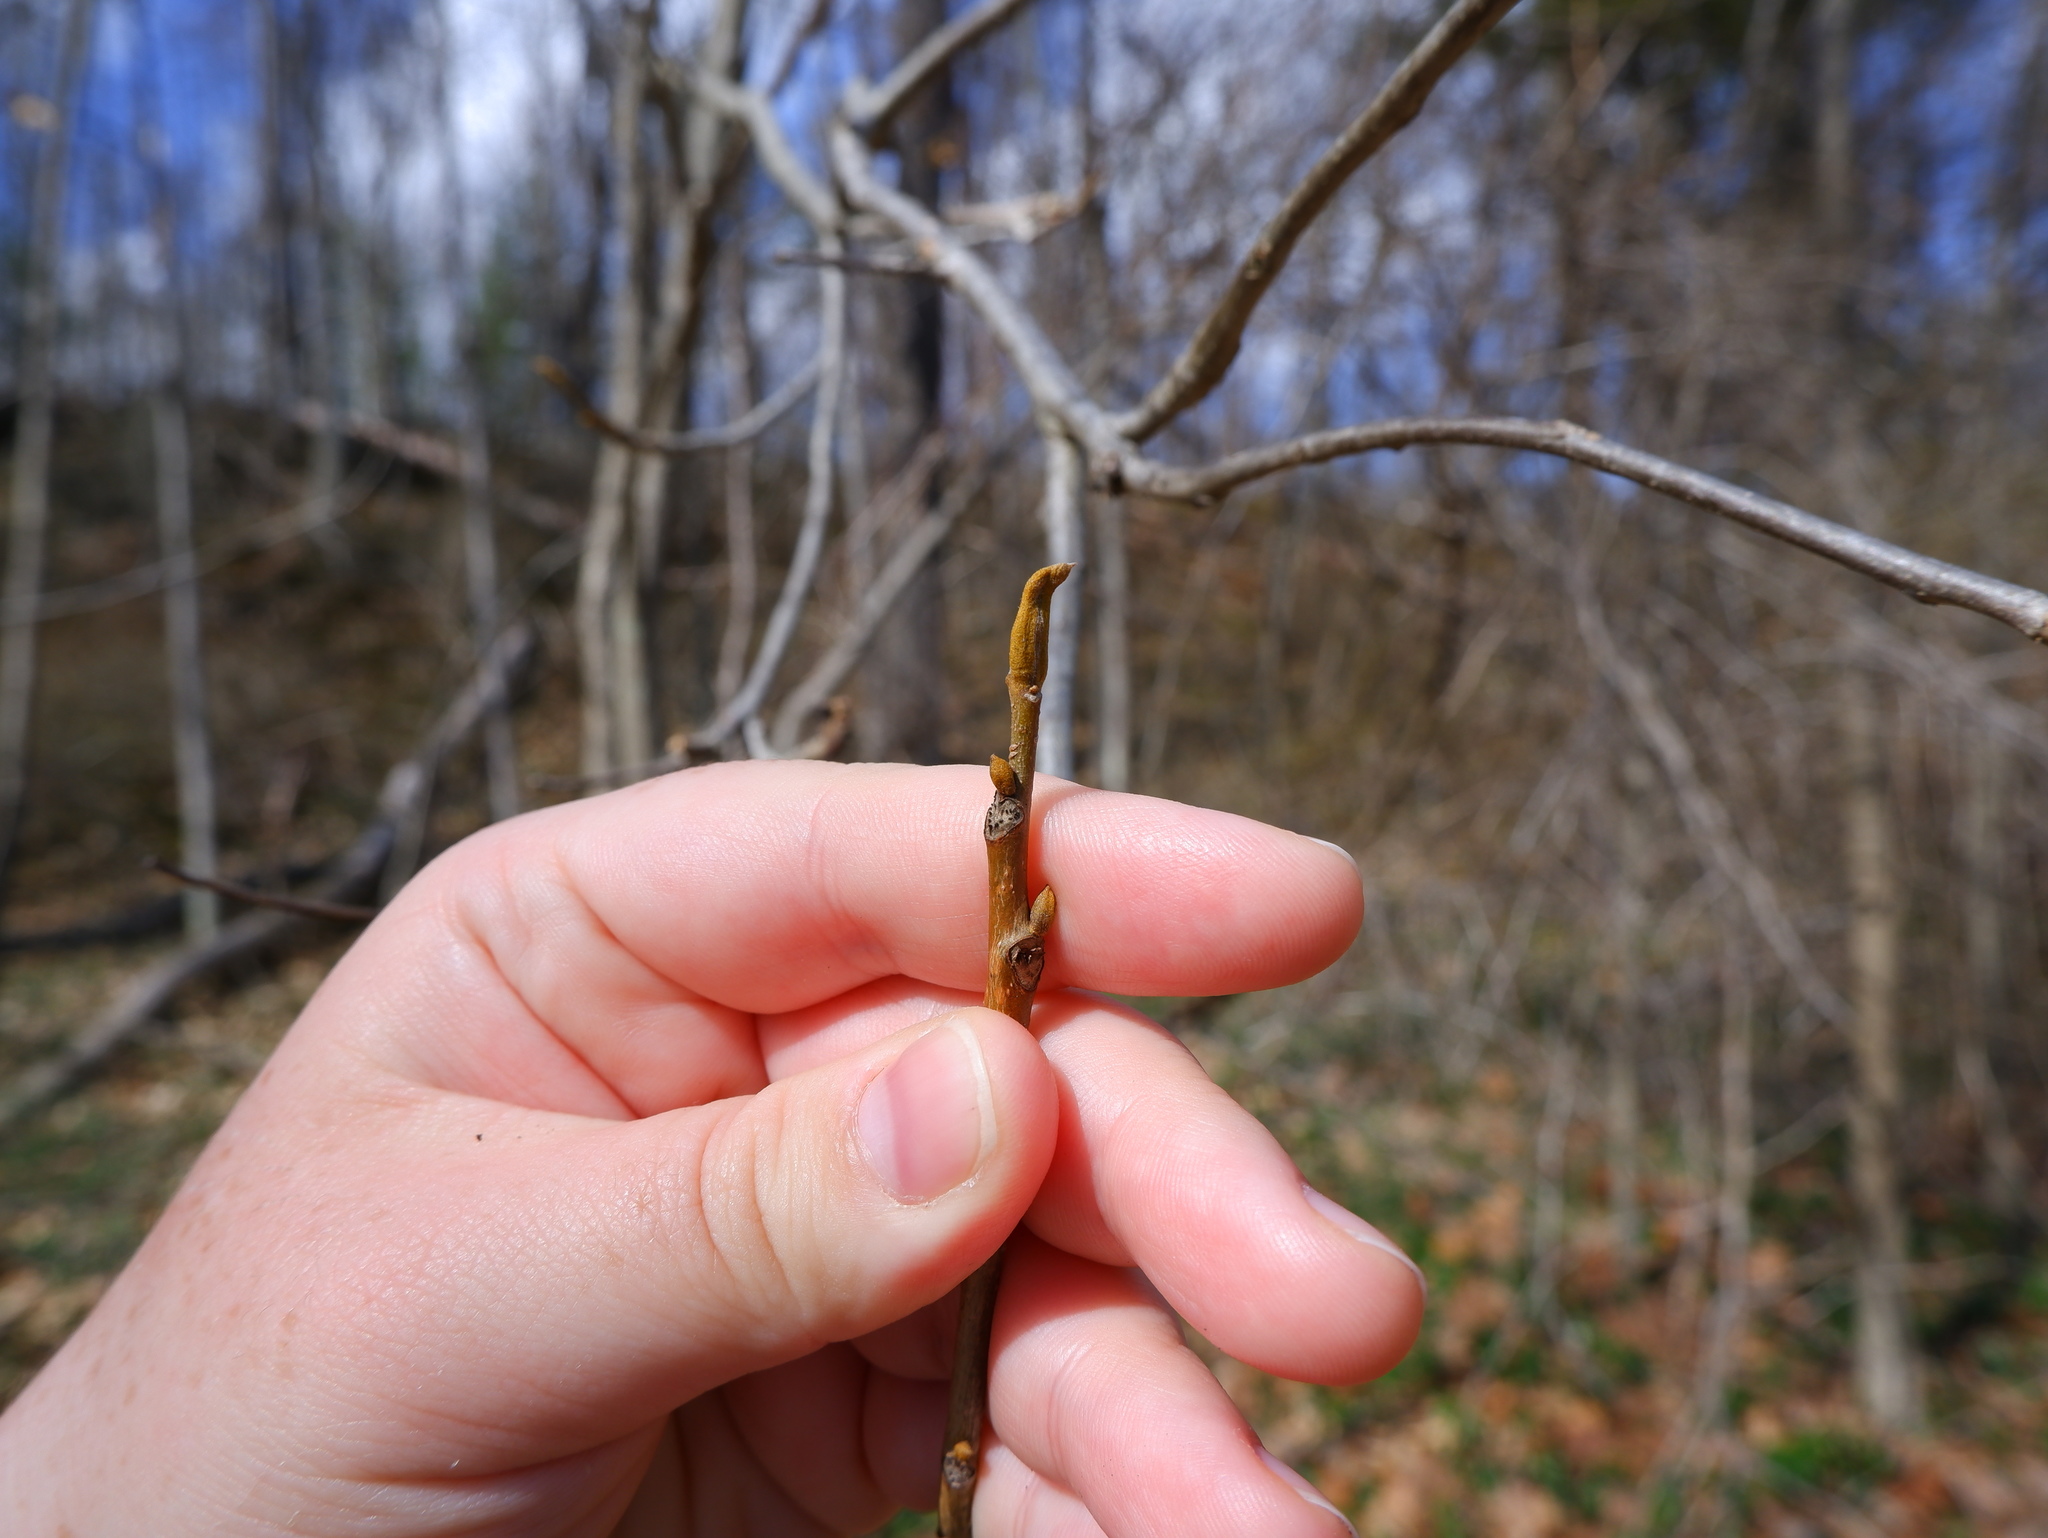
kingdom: Plantae
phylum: Tracheophyta
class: Magnoliopsida
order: Fagales
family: Juglandaceae
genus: Carya
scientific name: Carya cordiformis
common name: Bitternut hickory
